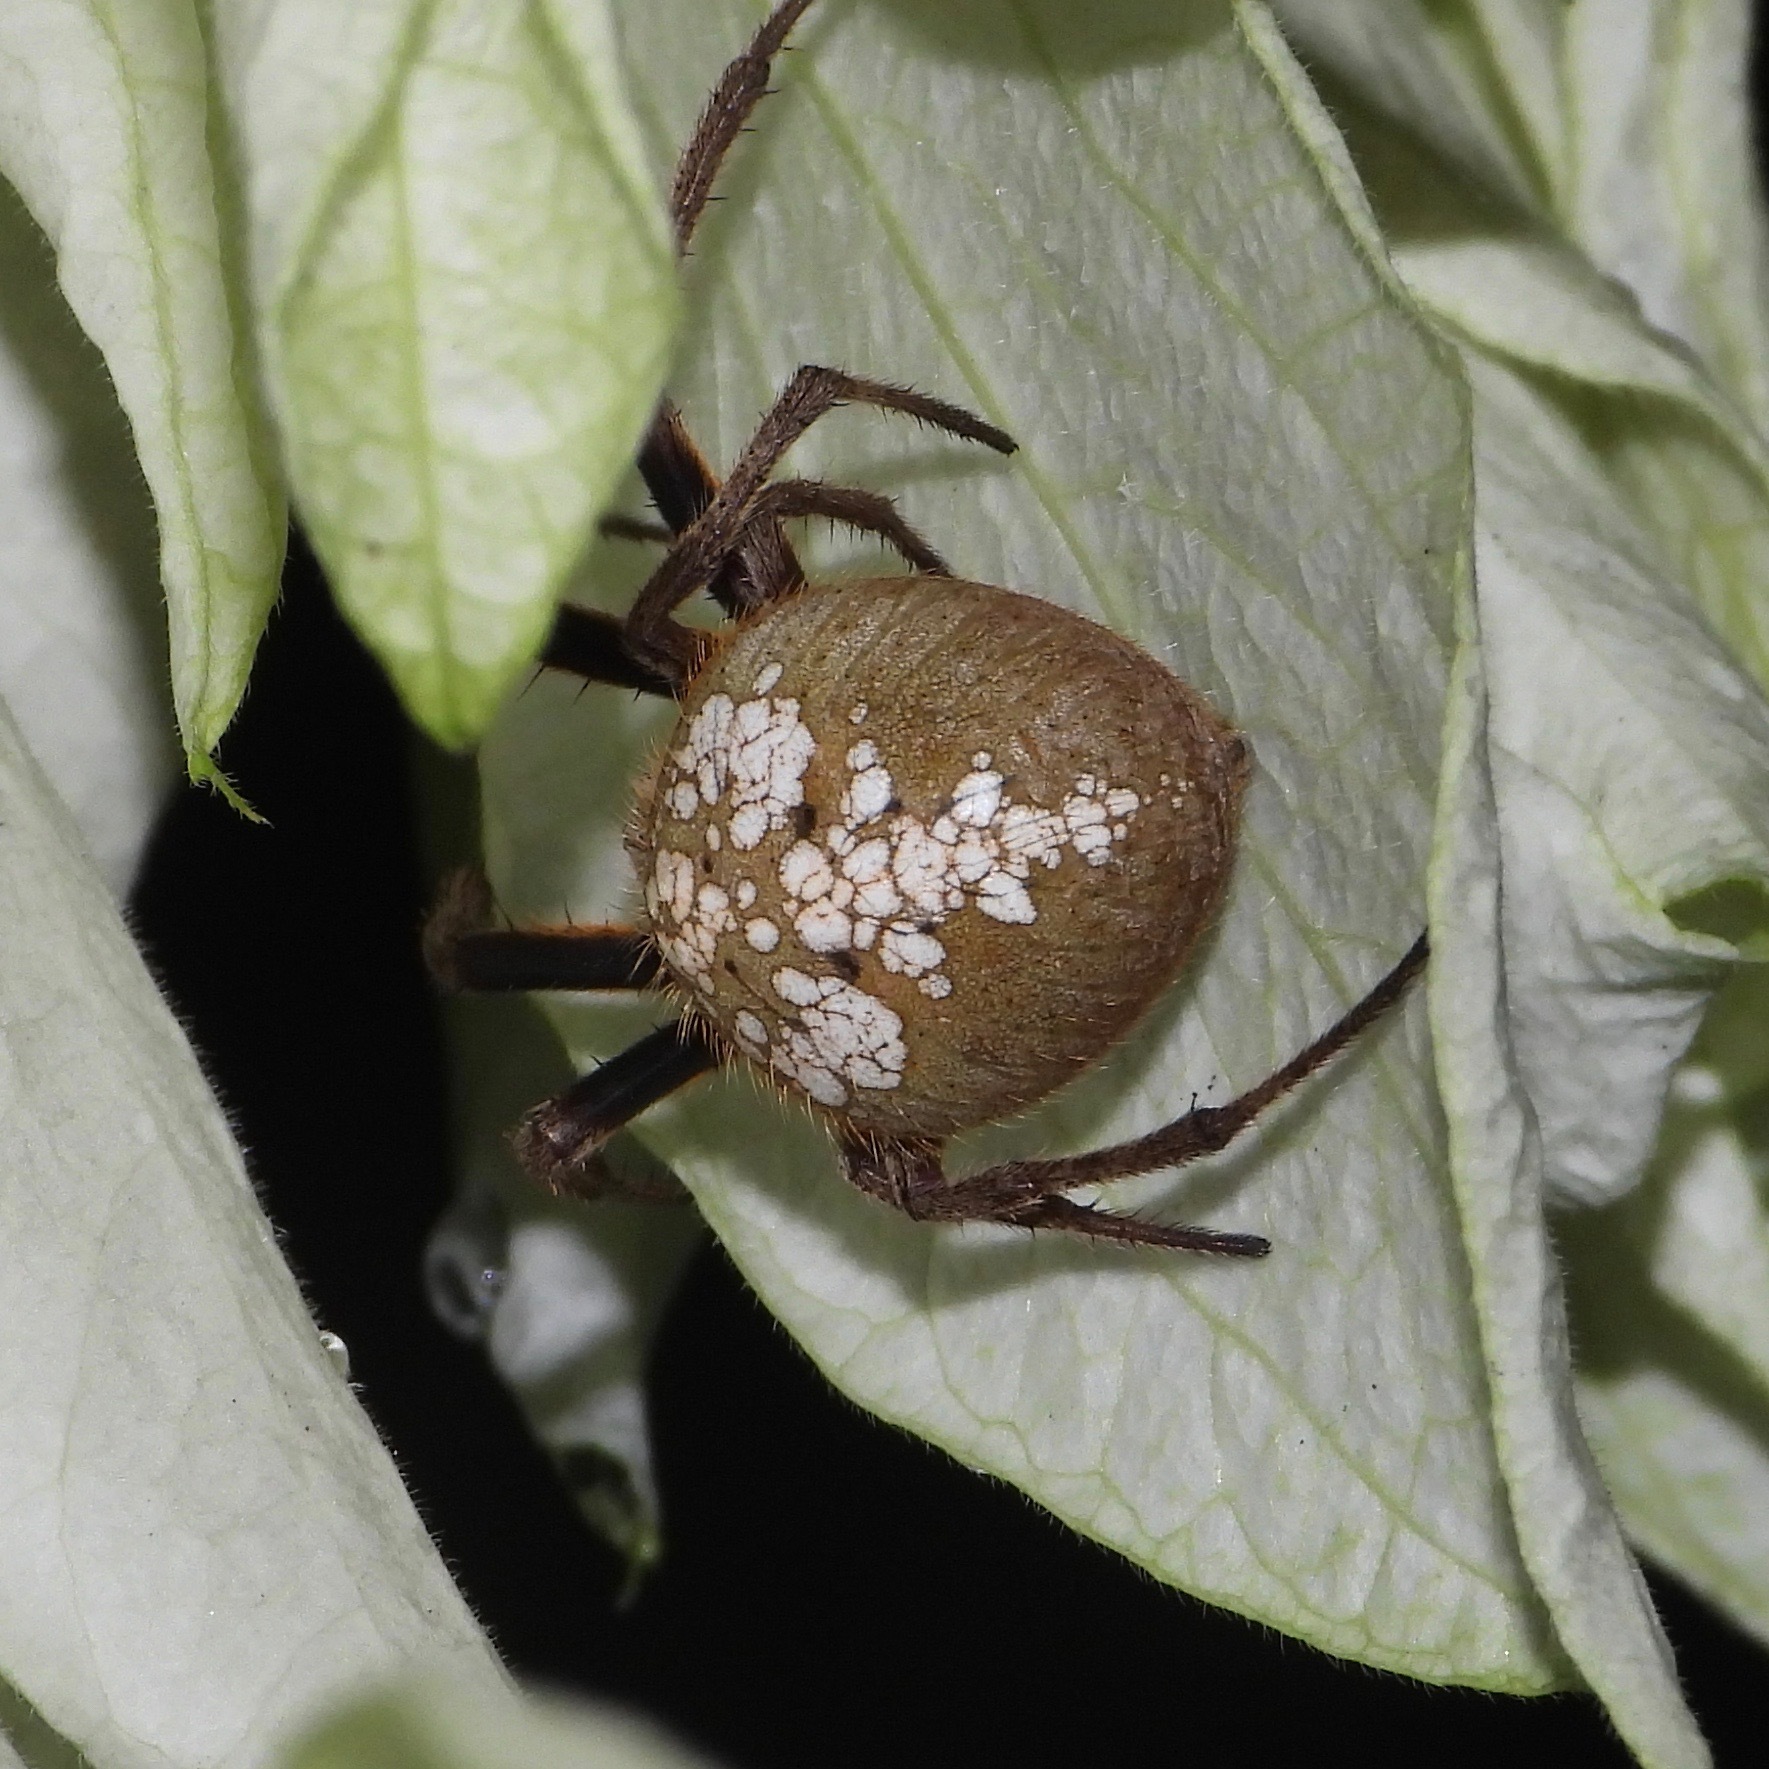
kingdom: Animalia
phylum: Arthropoda
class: Arachnida
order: Araneae
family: Araneidae
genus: Eriophora
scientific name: Eriophora ravilla
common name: Orb weavers
